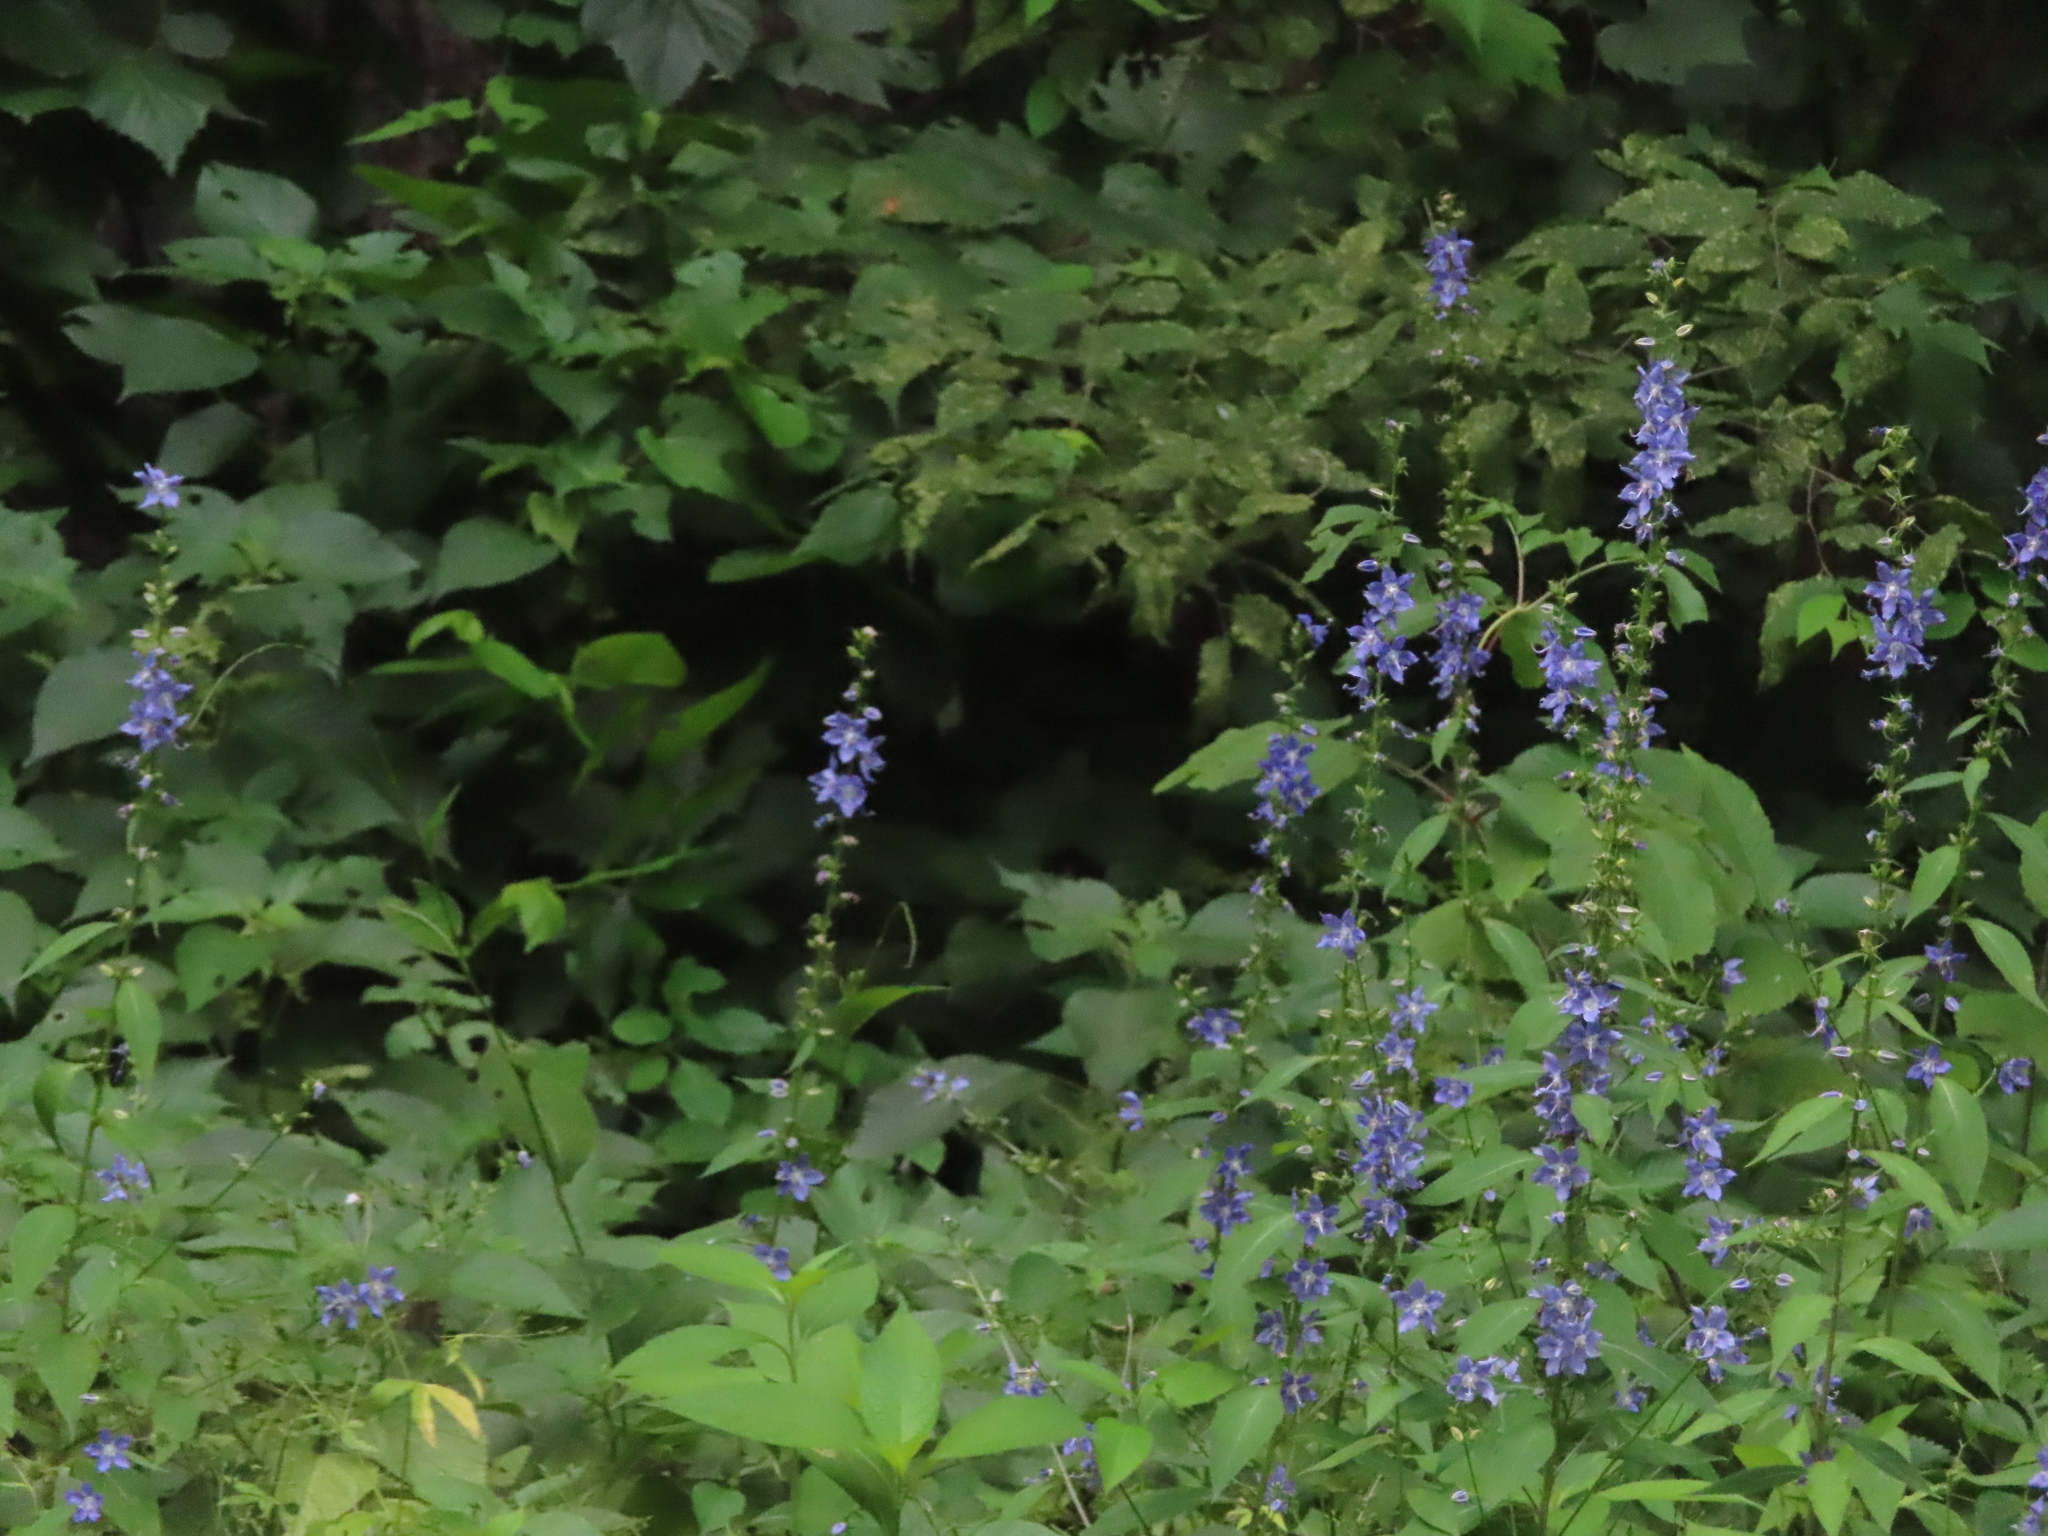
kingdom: Plantae
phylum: Tracheophyta
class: Magnoliopsida
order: Asterales
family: Campanulaceae
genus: Campanulastrum
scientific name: Campanulastrum americanum
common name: American bellflower
